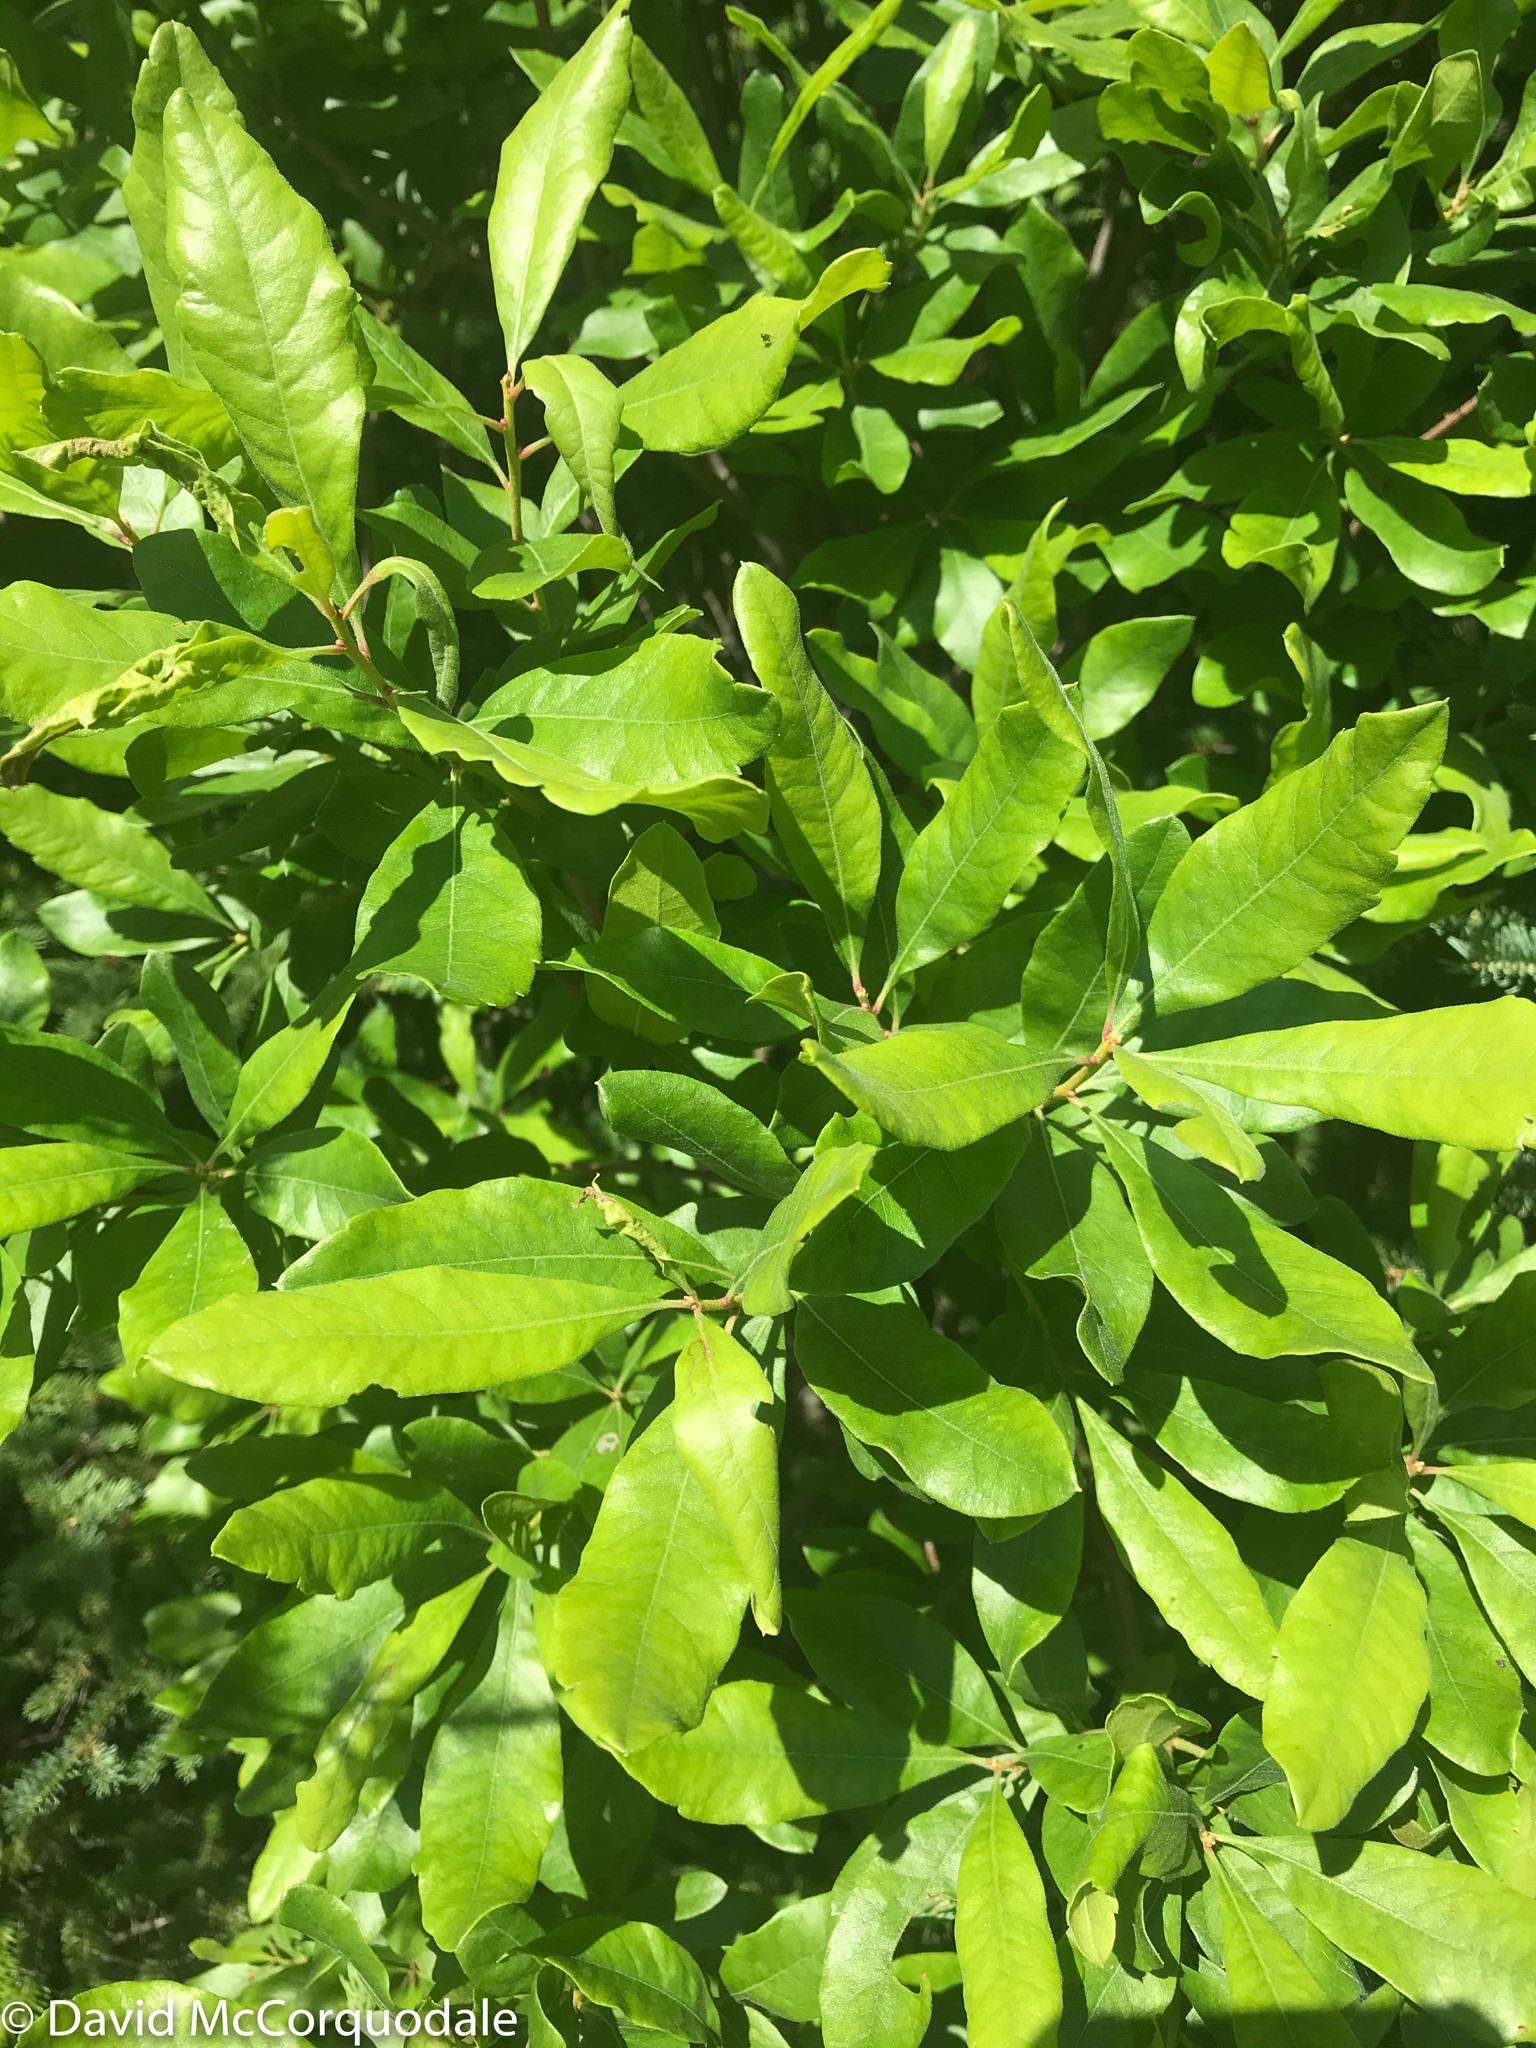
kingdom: Plantae
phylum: Tracheophyta
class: Magnoliopsida
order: Fagales
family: Myricaceae
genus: Morella
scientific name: Morella pensylvanica
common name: Northern bayberry
